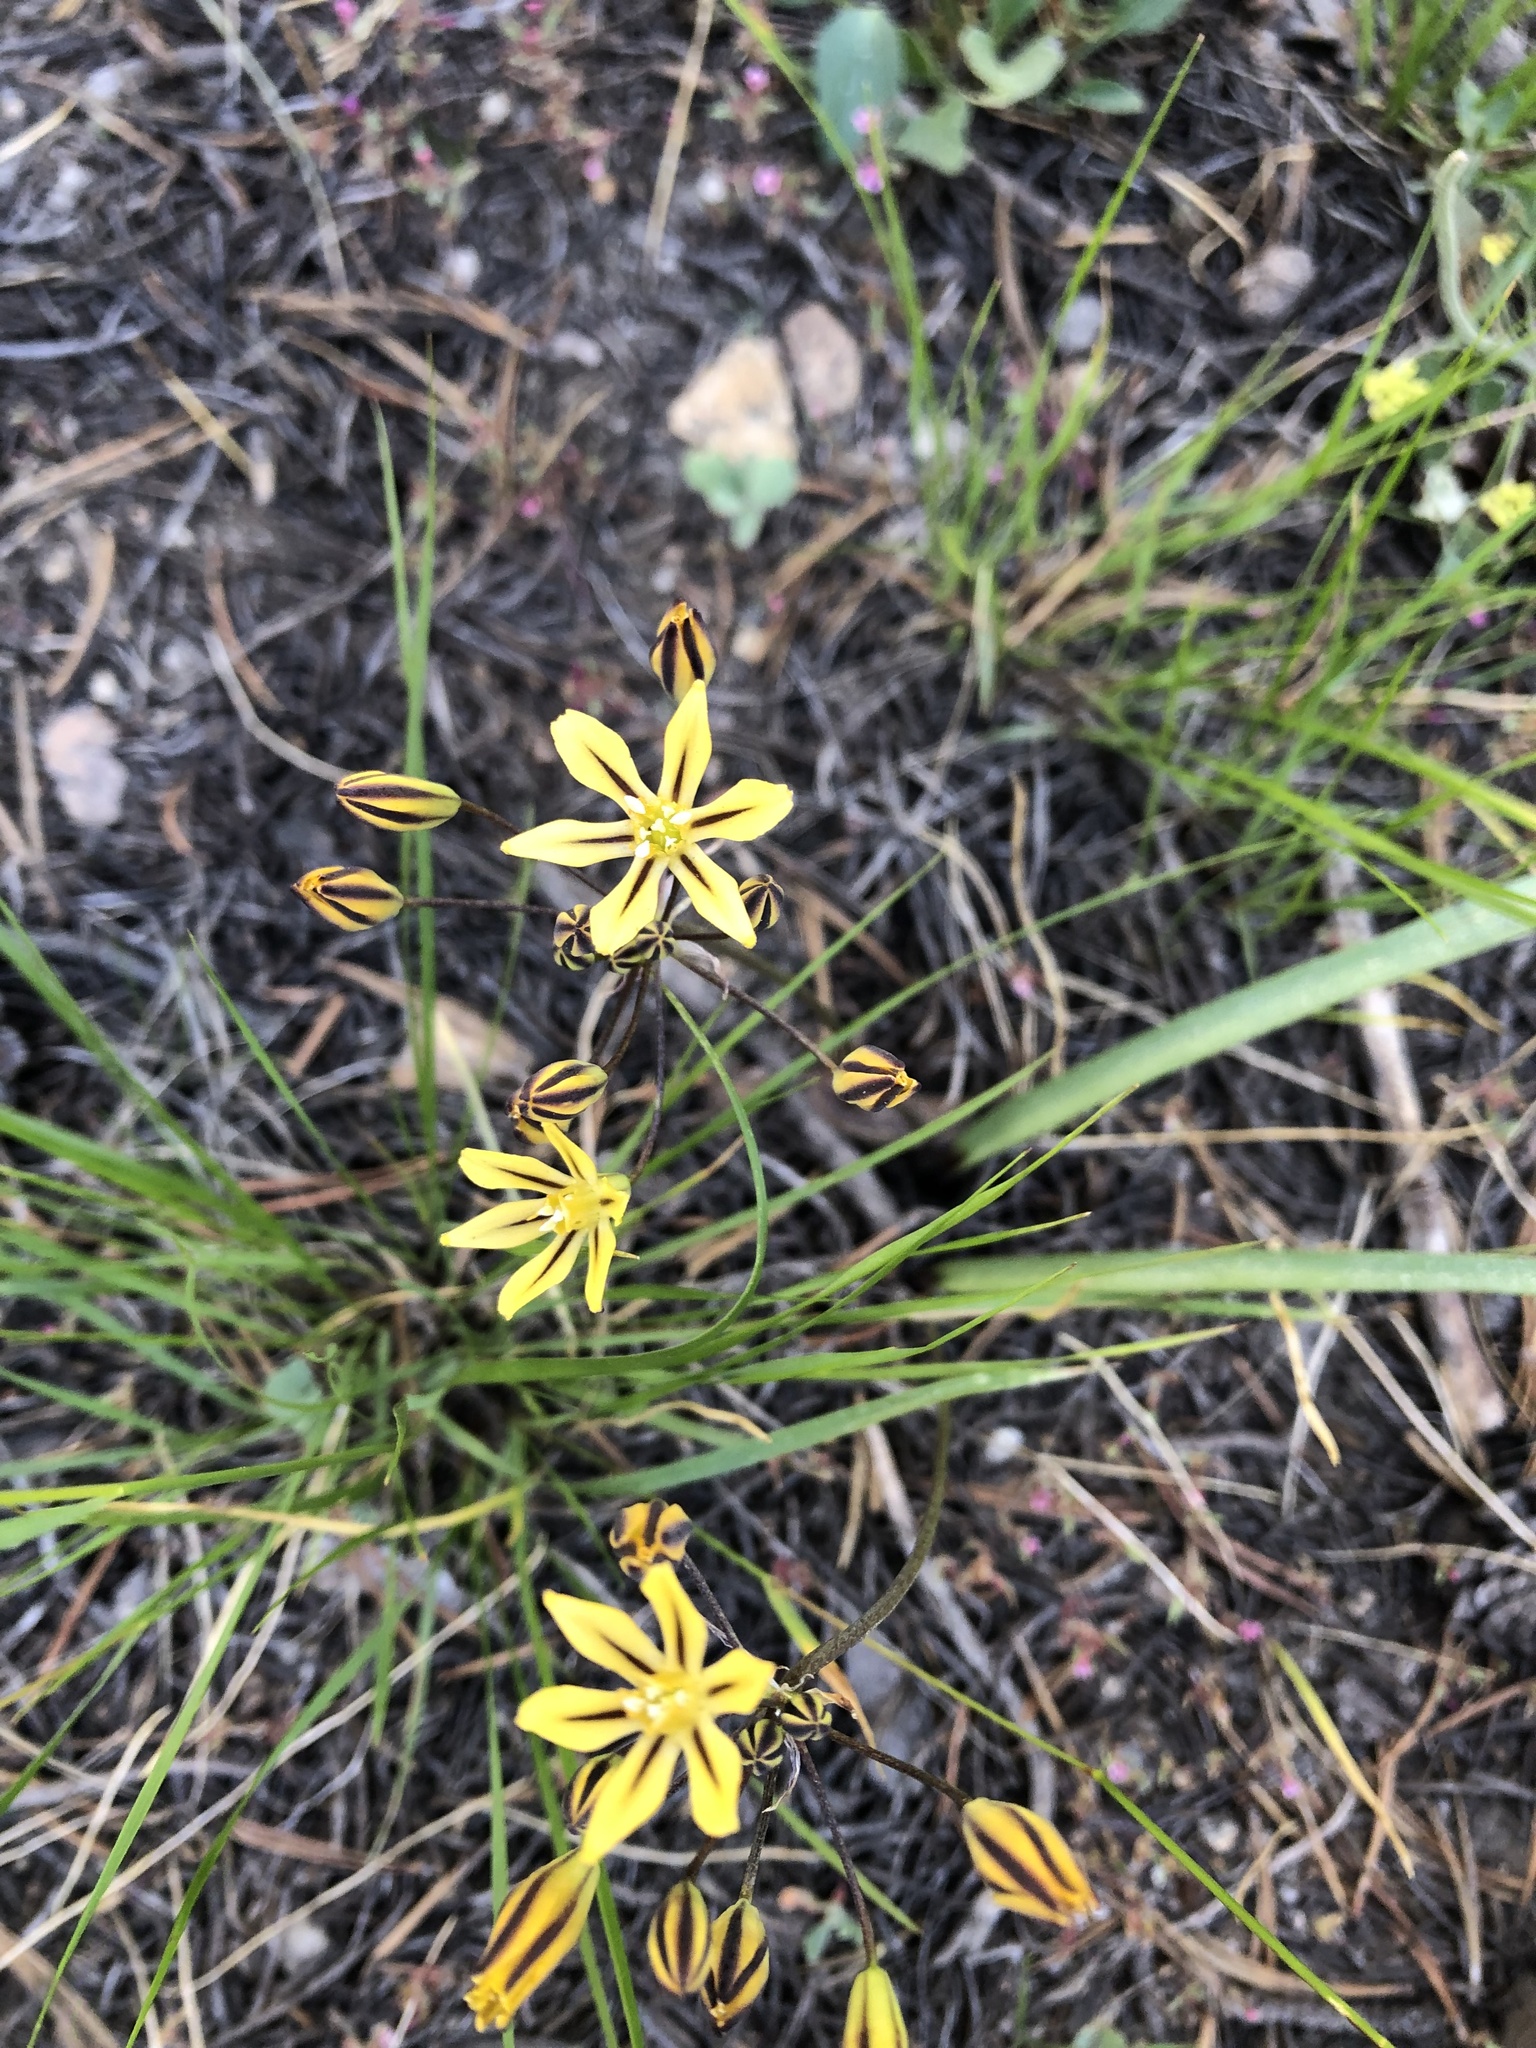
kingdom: Plantae
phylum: Tracheophyta
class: Liliopsida
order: Asparagales
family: Asparagaceae
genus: Triteleia
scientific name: Triteleia ixioides
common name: Yellow-brodiaea
